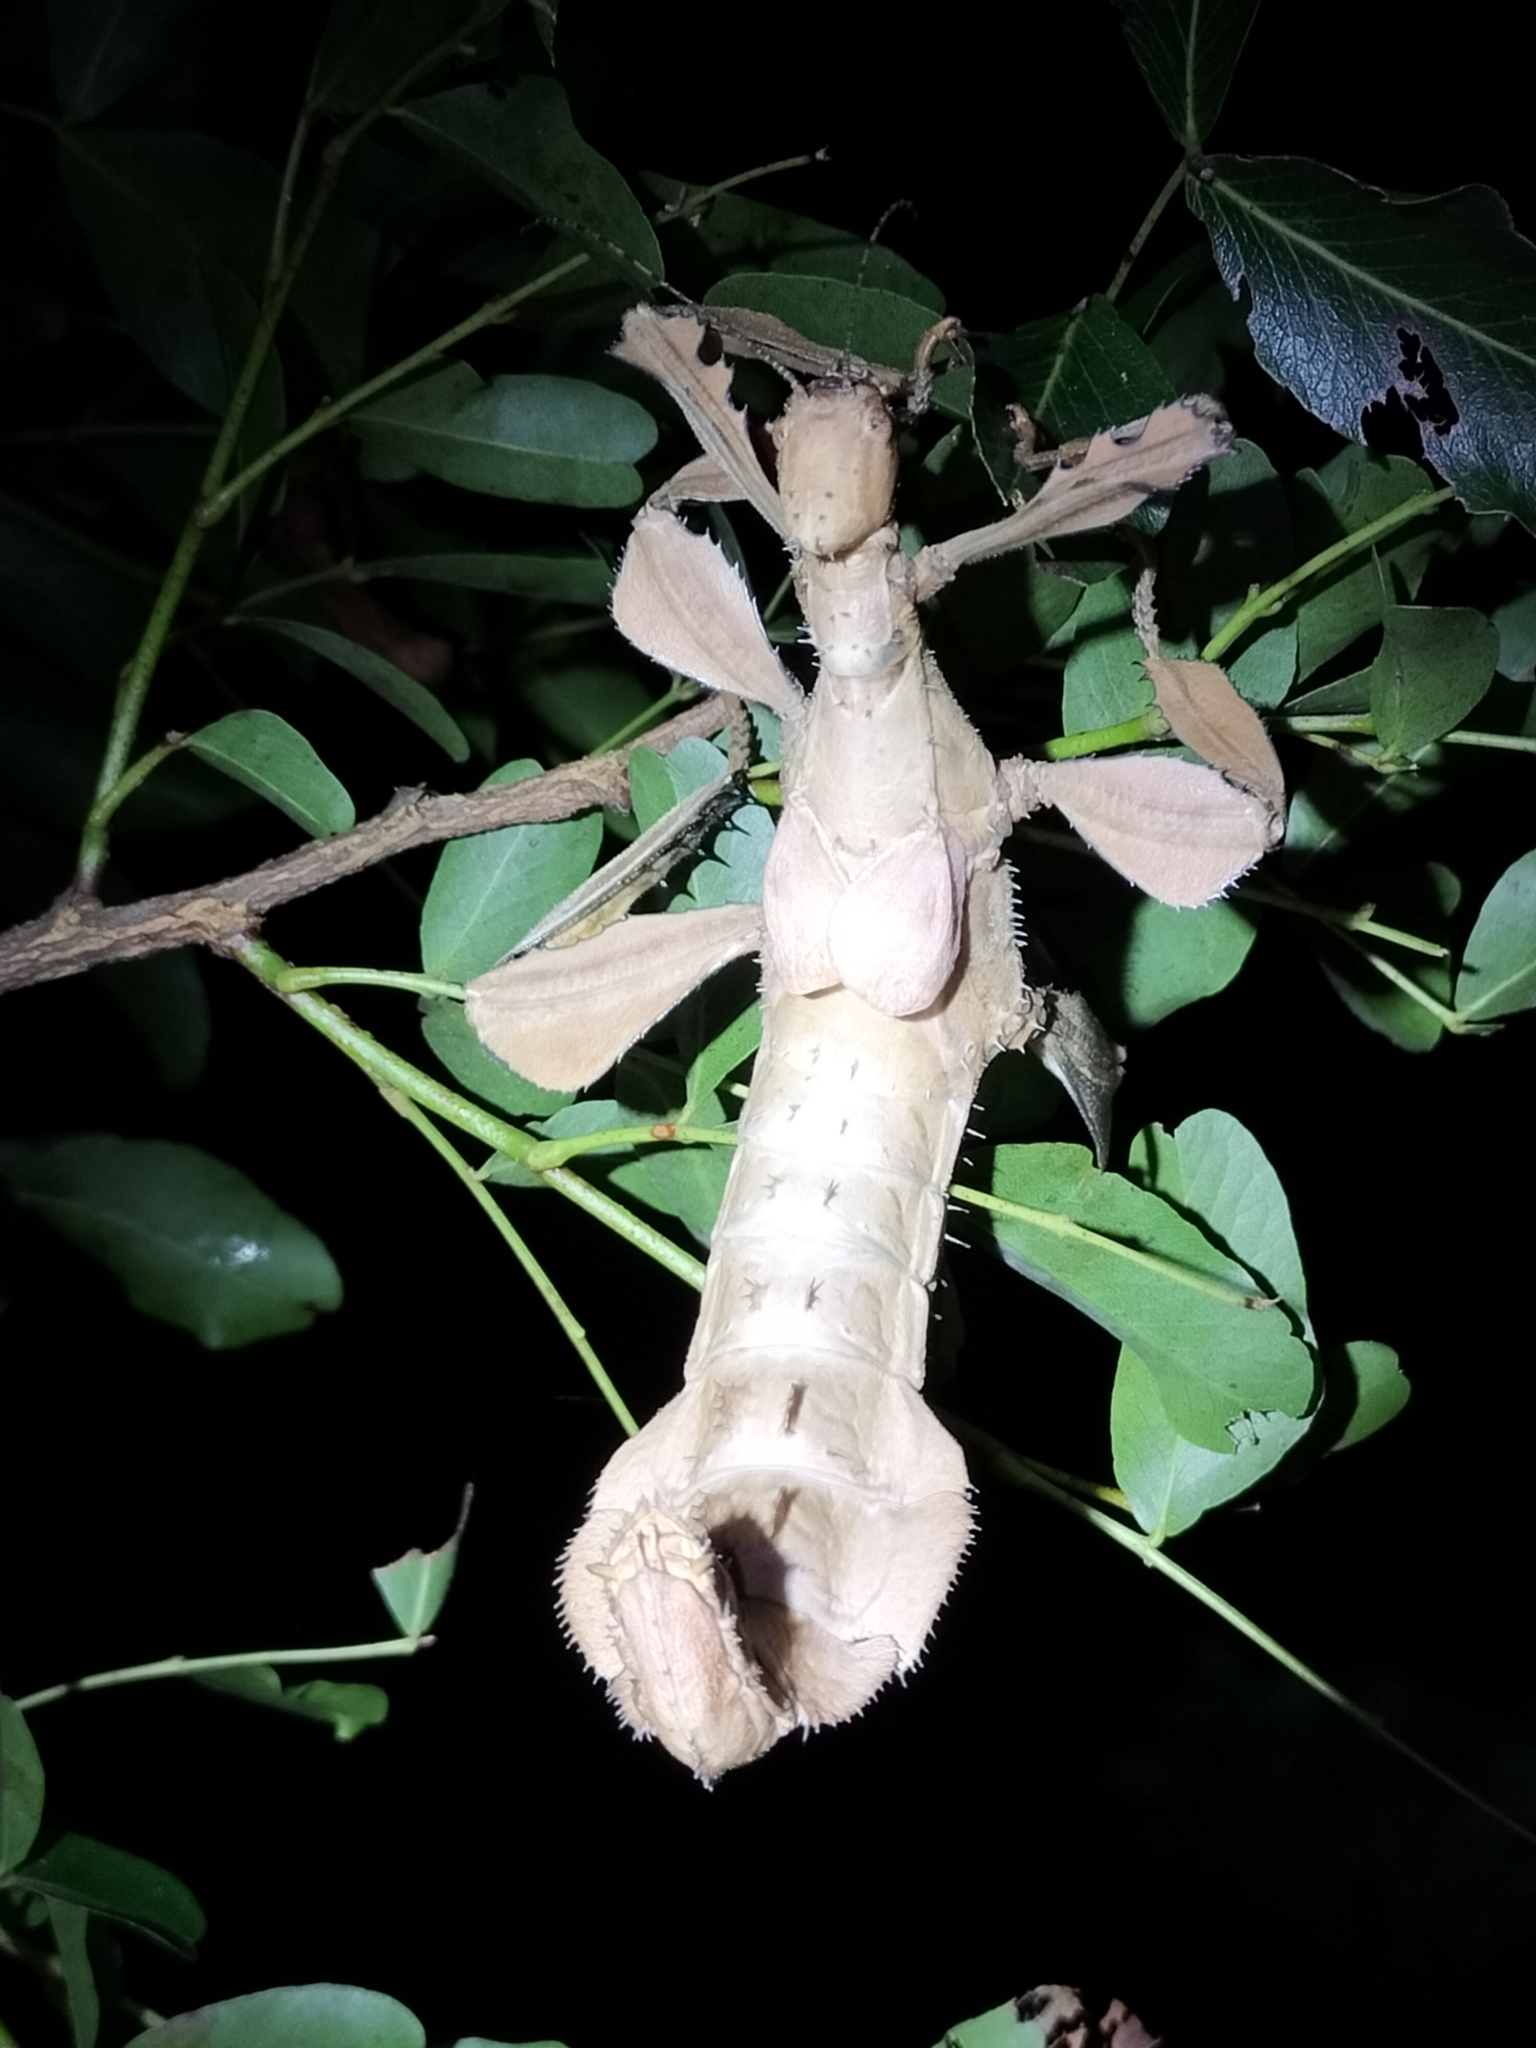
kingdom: Animalia
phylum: Arthropoda
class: Insecta
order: Phasmida
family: Phasmatidae
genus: Extatosoma
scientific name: Extatosoma tiaratum
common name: Macleay's spectre
